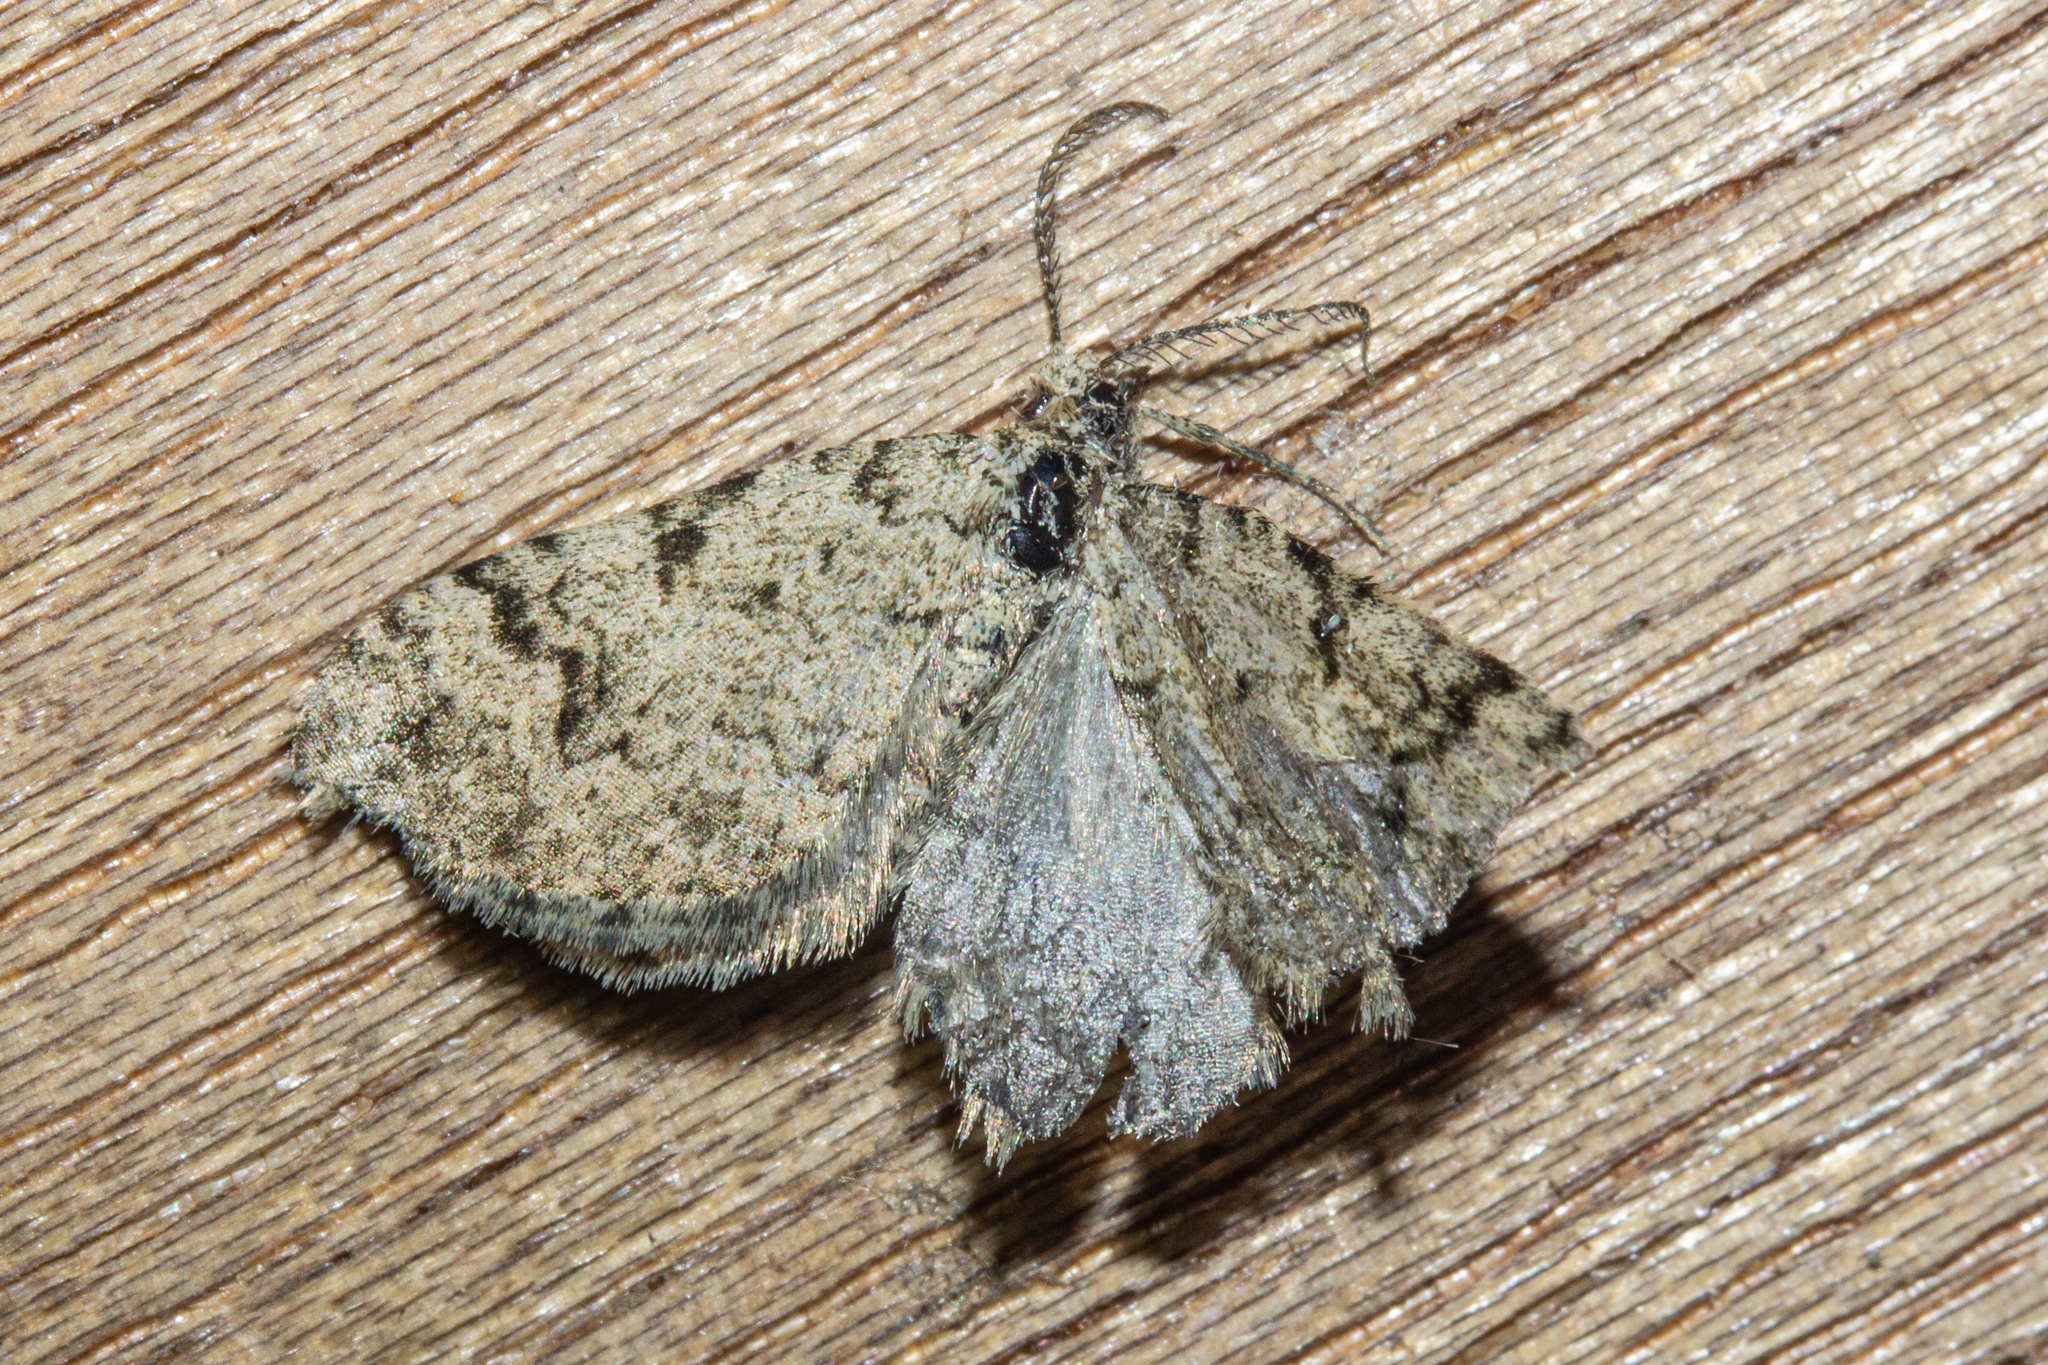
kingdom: Animalia
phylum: Arthropoda
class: Insecta
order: Lepidoptera
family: Geometridae
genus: Helastia
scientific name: Helastia cinerearia
